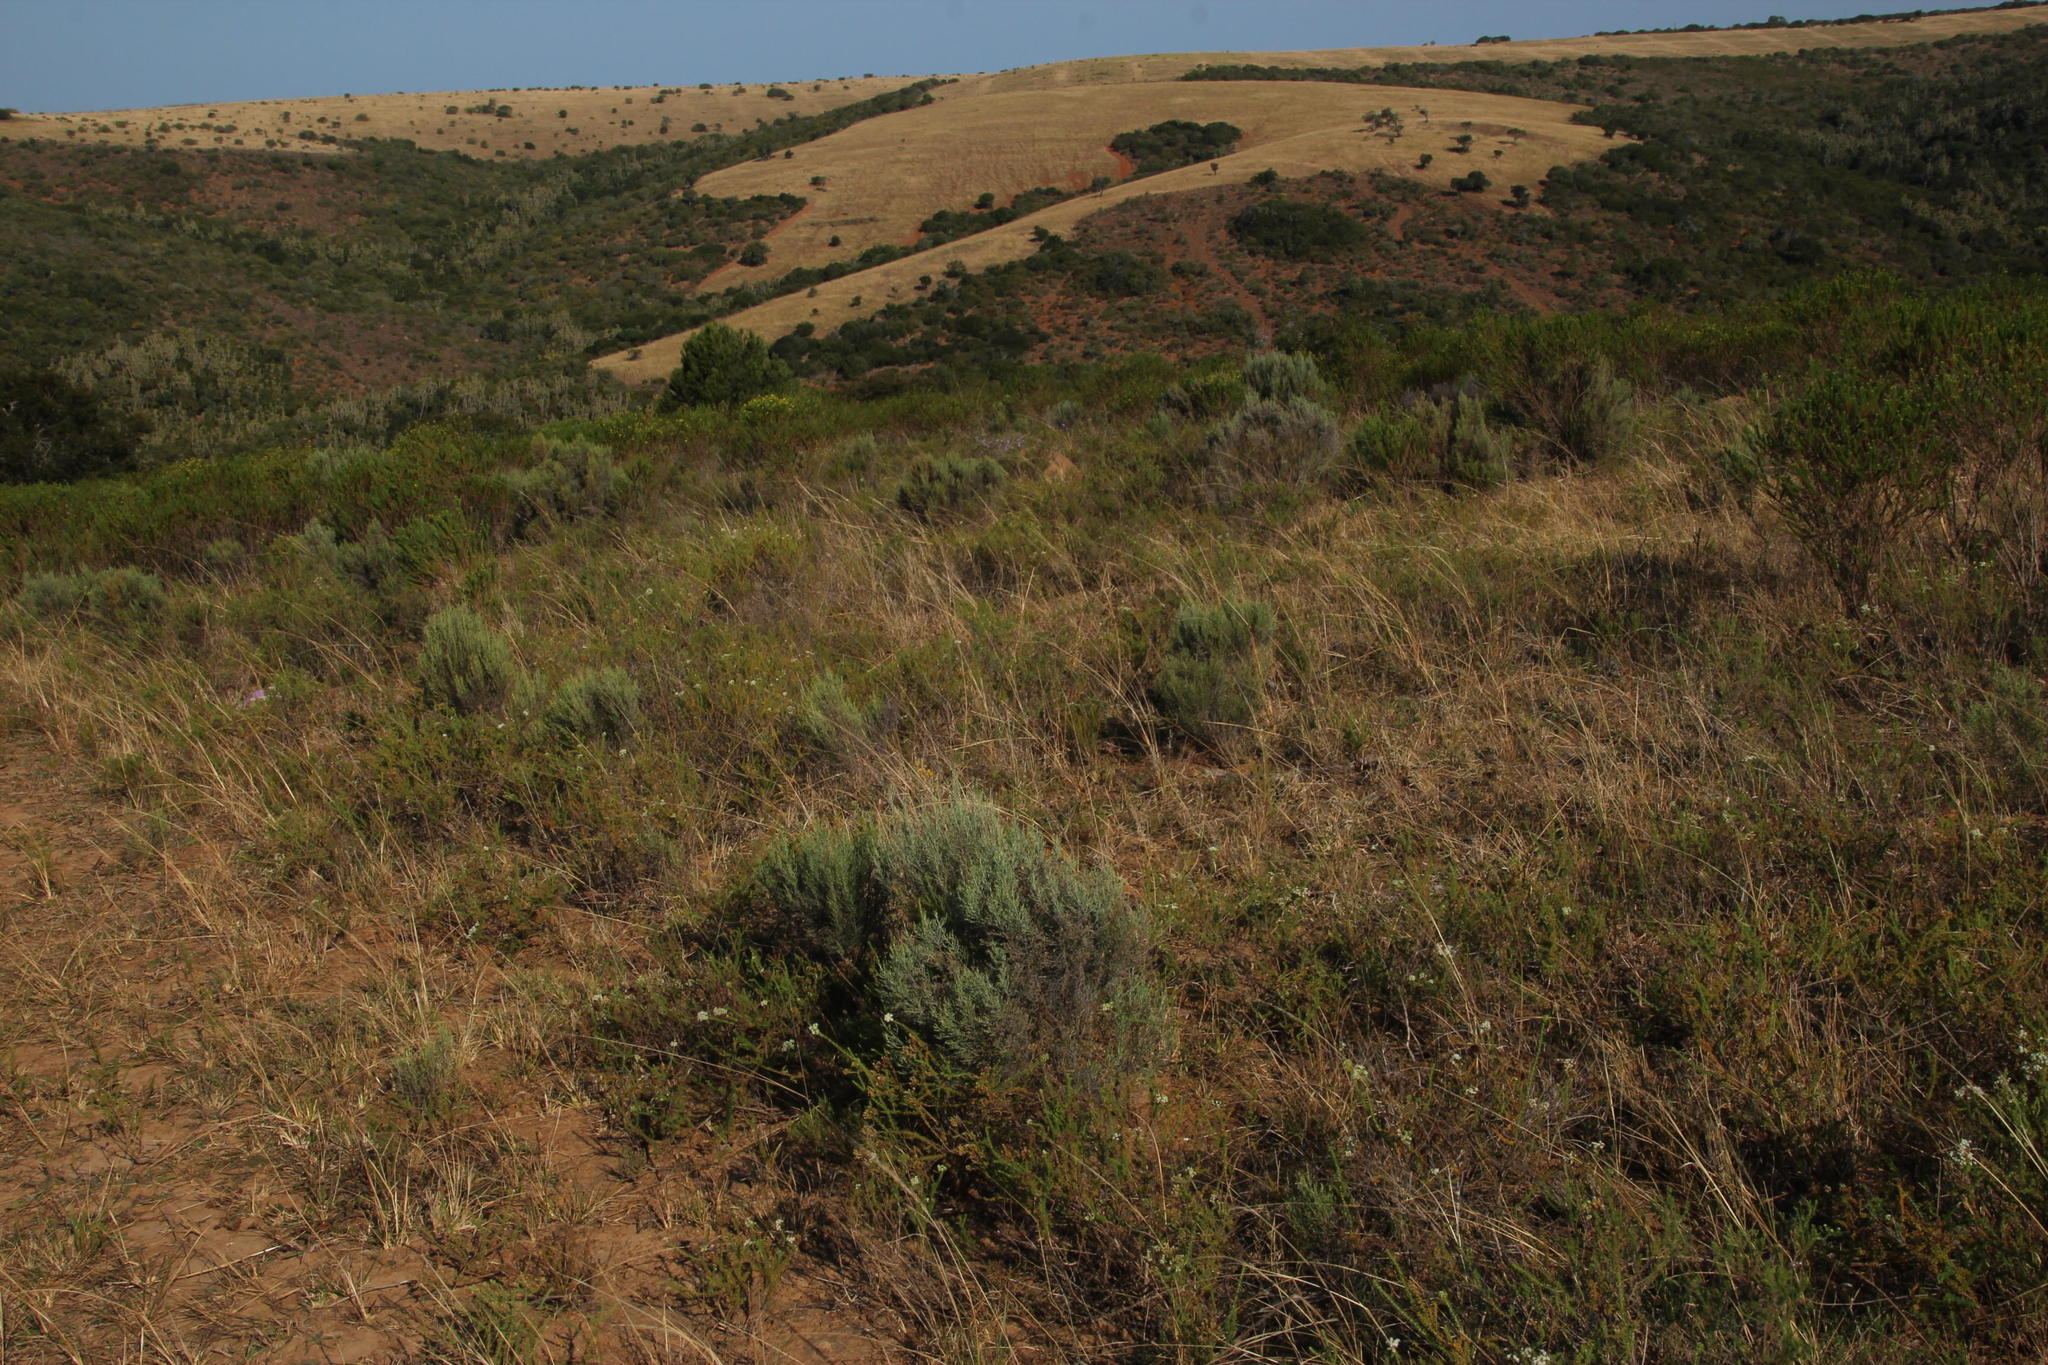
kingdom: Plantae
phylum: Tracheophyta
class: Magnoliopsida
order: Asterales
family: Asteraceae
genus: Dicerothamnus
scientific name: Dicerothamnus rhinocerotis
